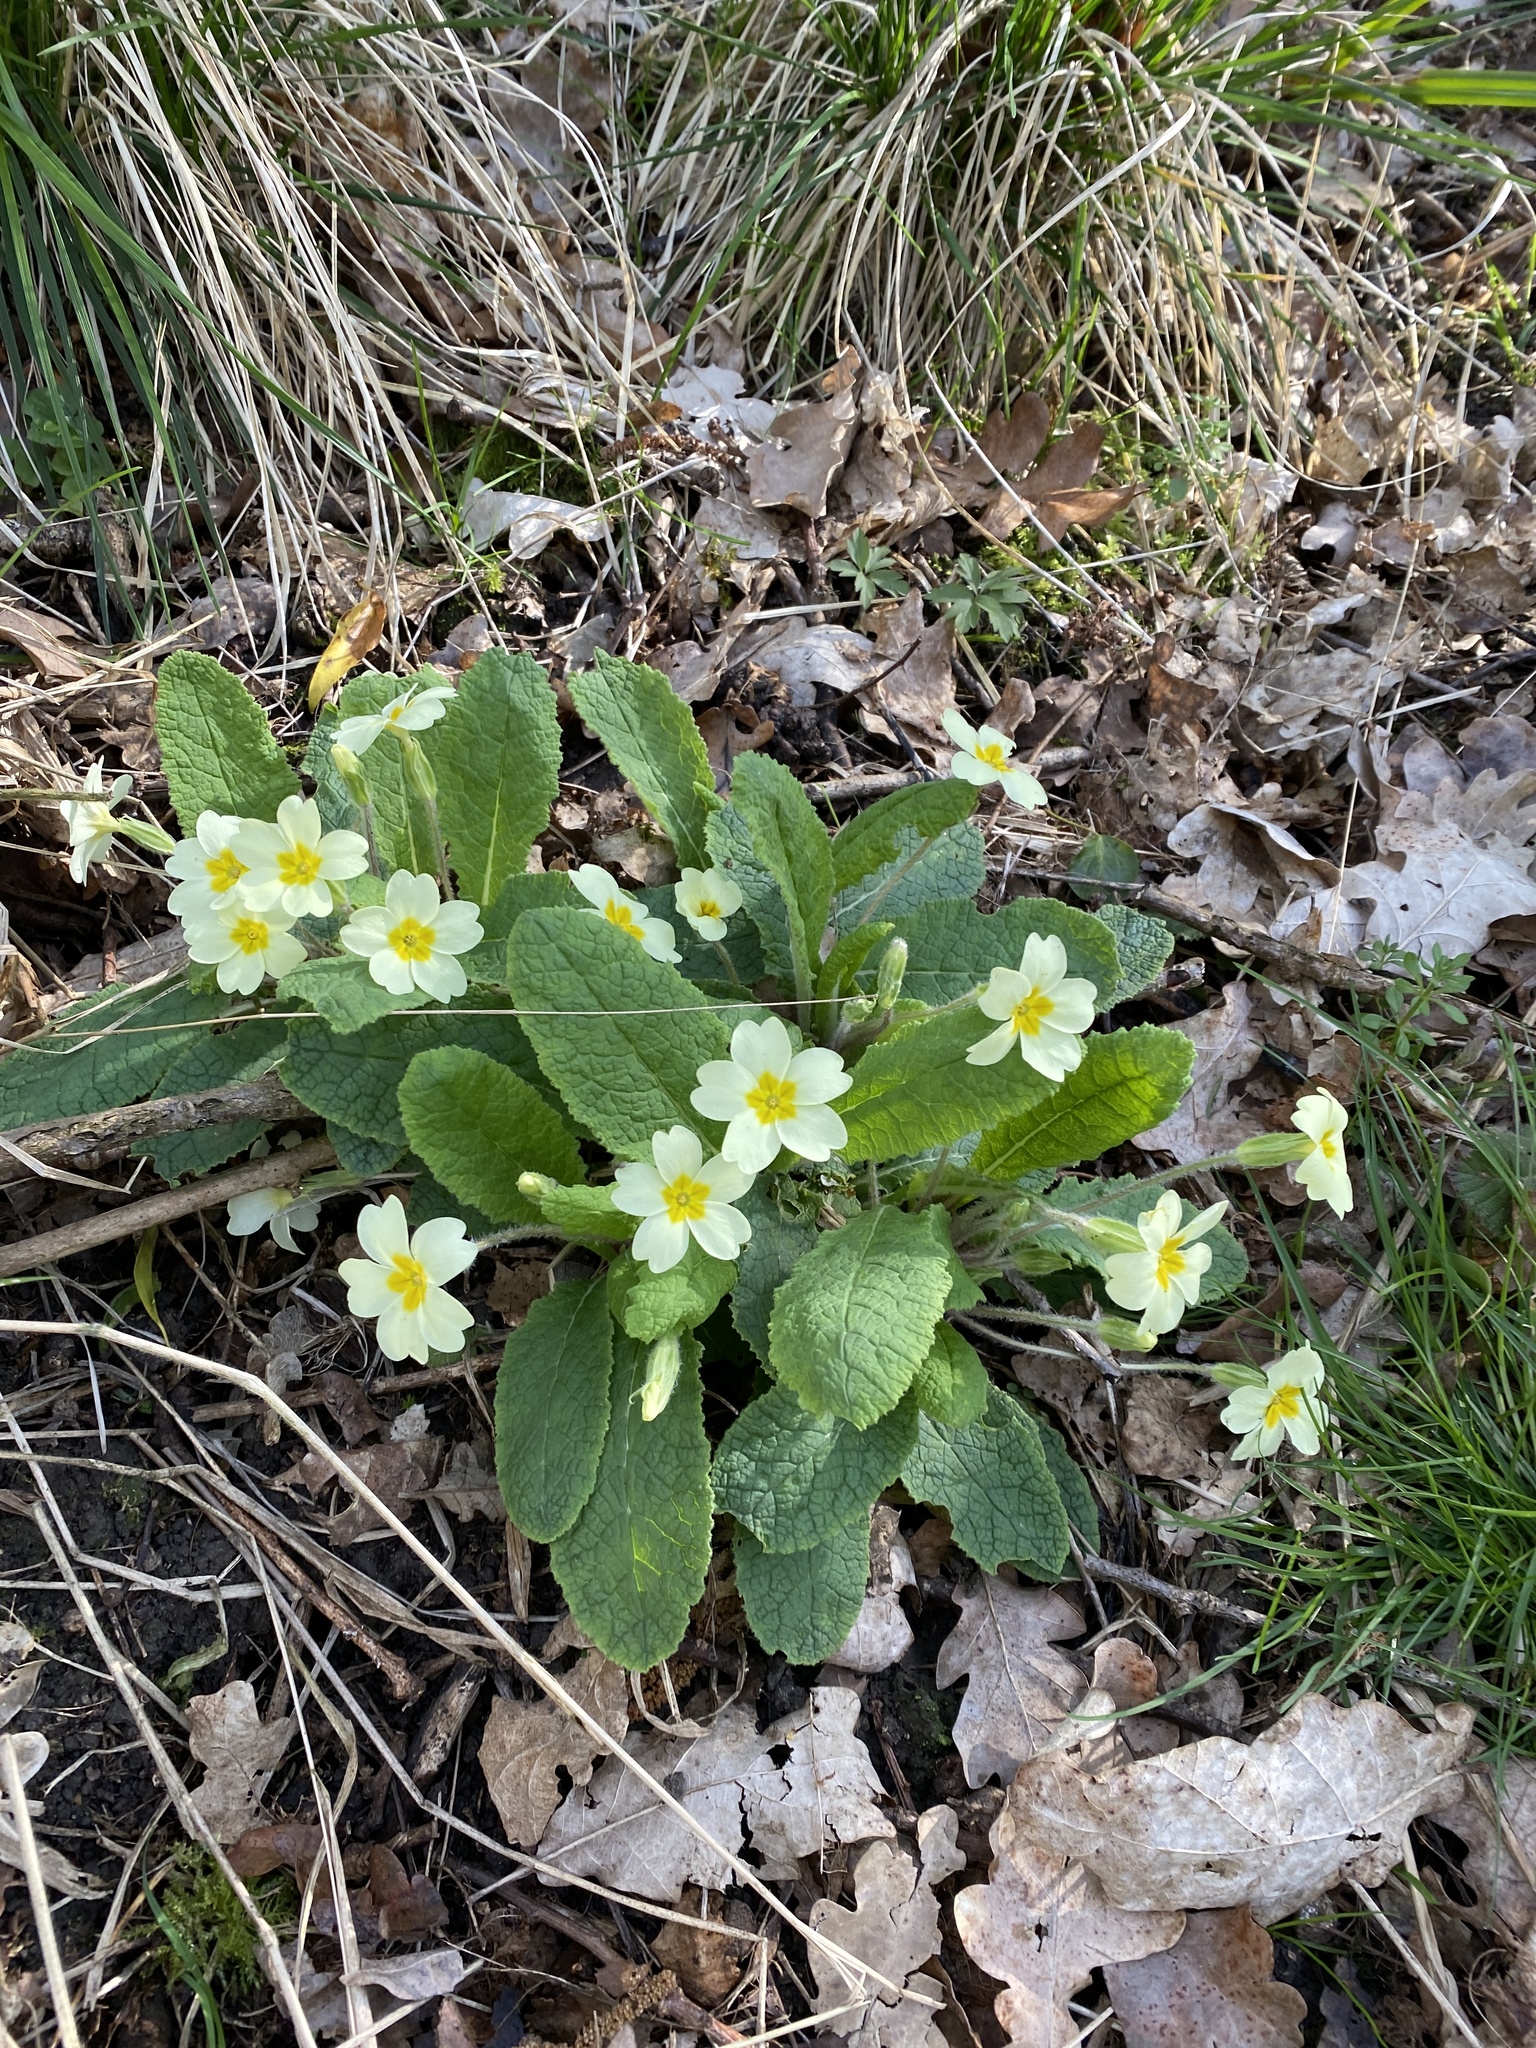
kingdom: Plantae
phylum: Tracheophyta
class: Magnoliopsida
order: Ericales
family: Primulaceae
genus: Primula
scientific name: Primula vulgaris
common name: Primrose
